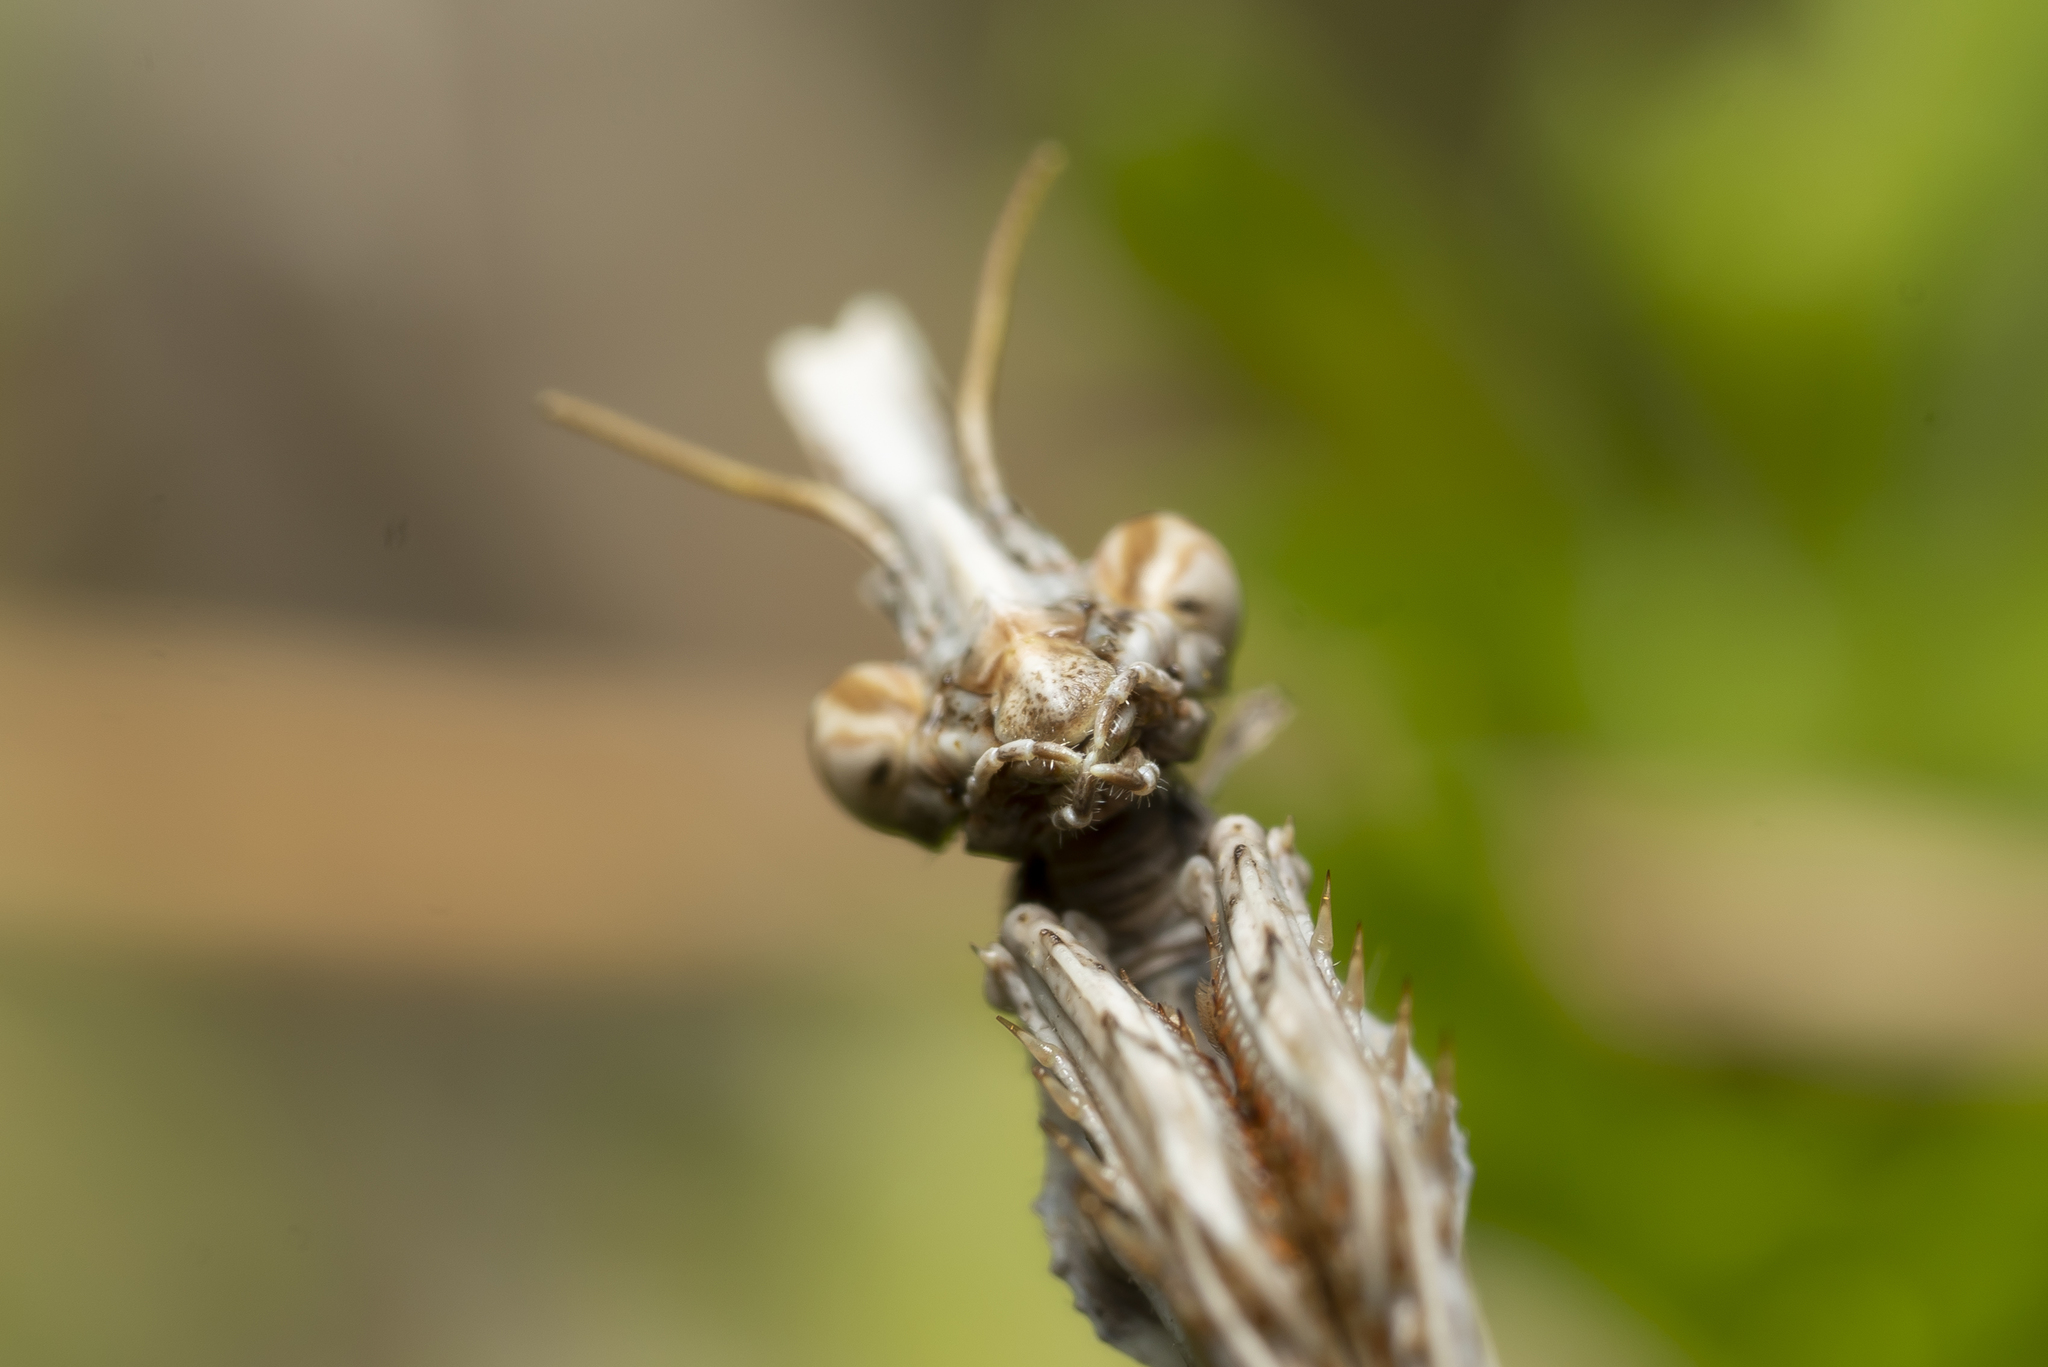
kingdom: Animalia
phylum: Arthropoda
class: Insecta
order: Mantodea
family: Empusidae
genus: Empusa
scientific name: Empusa fasciata
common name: Devil's mare
